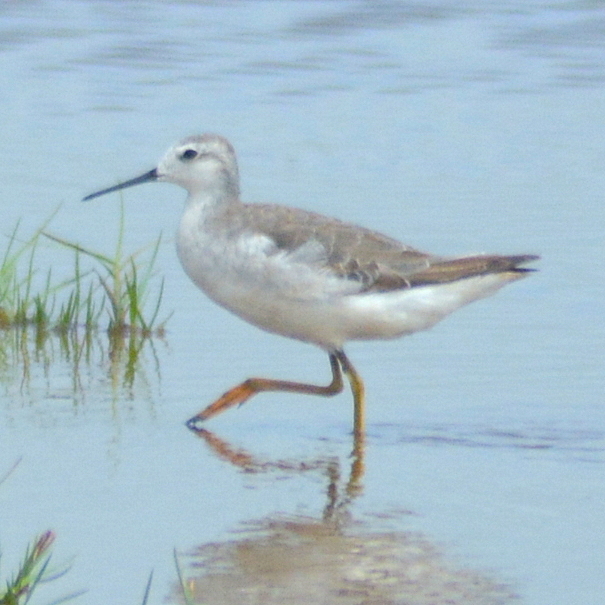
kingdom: Animalia
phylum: Chordata
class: Aves
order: Charadriiformes
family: Scolopacidae
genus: Phalaropus
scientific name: Phalaropus tricolor
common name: Wilson's phalarope
